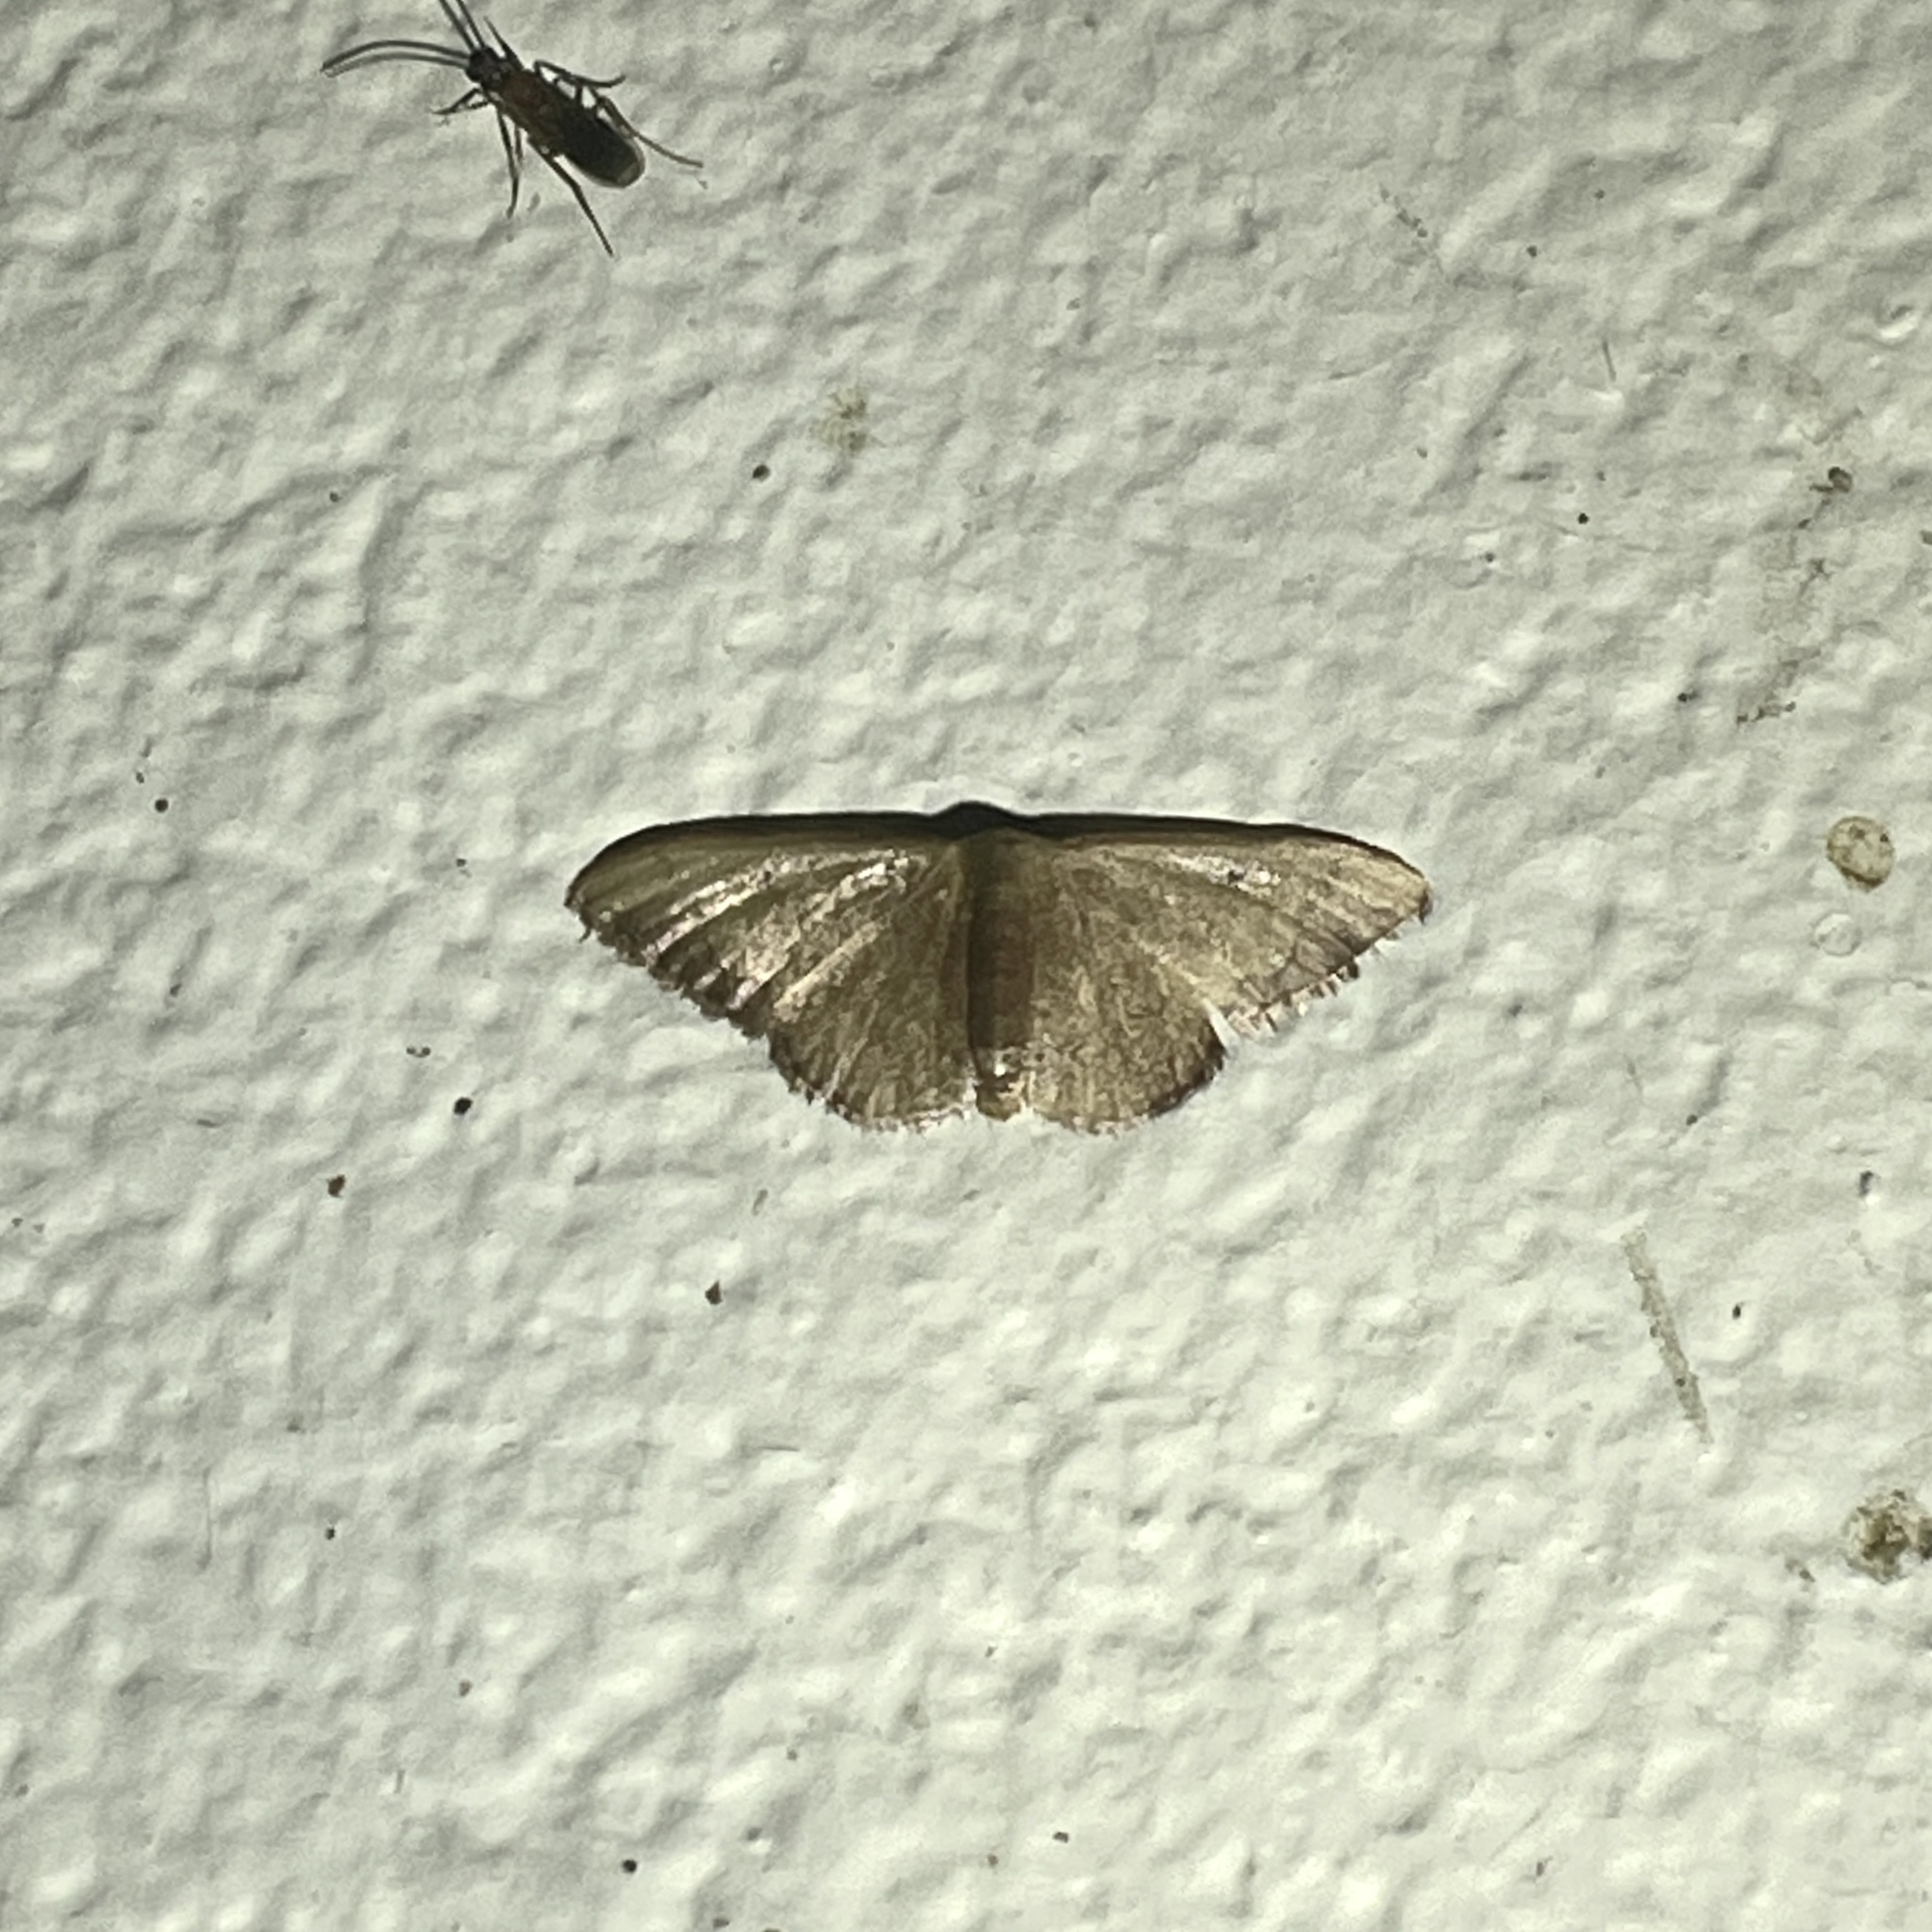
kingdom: Animalia
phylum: Arthropoda
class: Insecta
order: Lepidoptera
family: Geometridae
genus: Idaea
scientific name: Idaea rufulata
